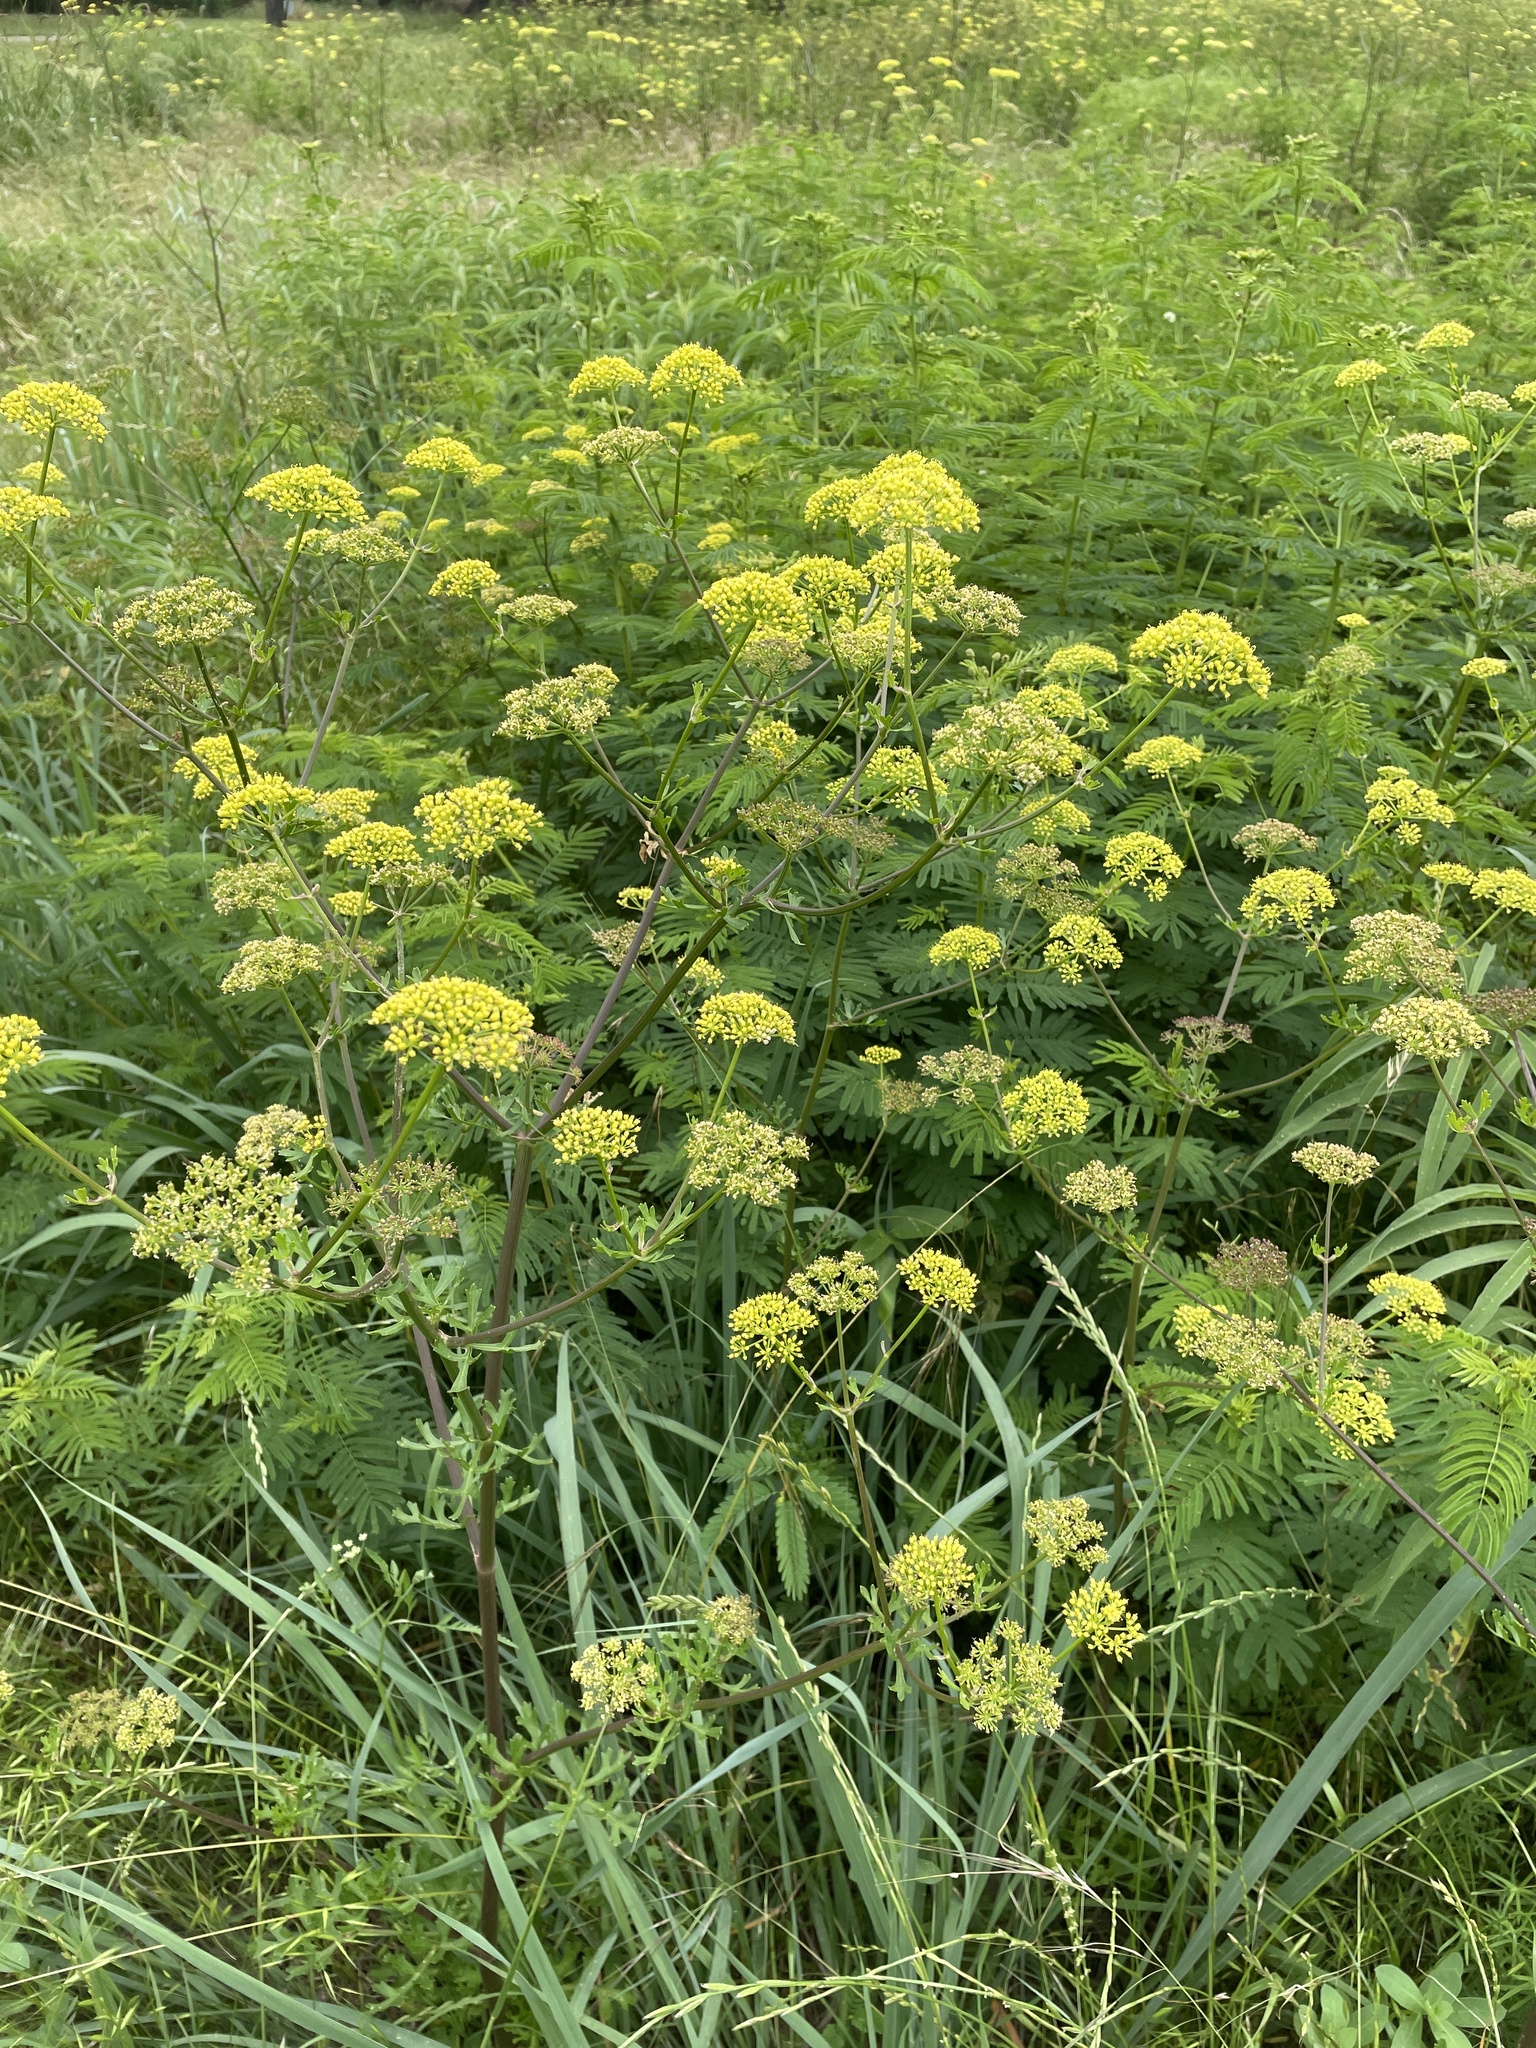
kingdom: Plantae
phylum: Tracheophyta
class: Magnoliopsida
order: Apiales
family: Apiaceae
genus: Polytaenia
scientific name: Polytaenia texana
